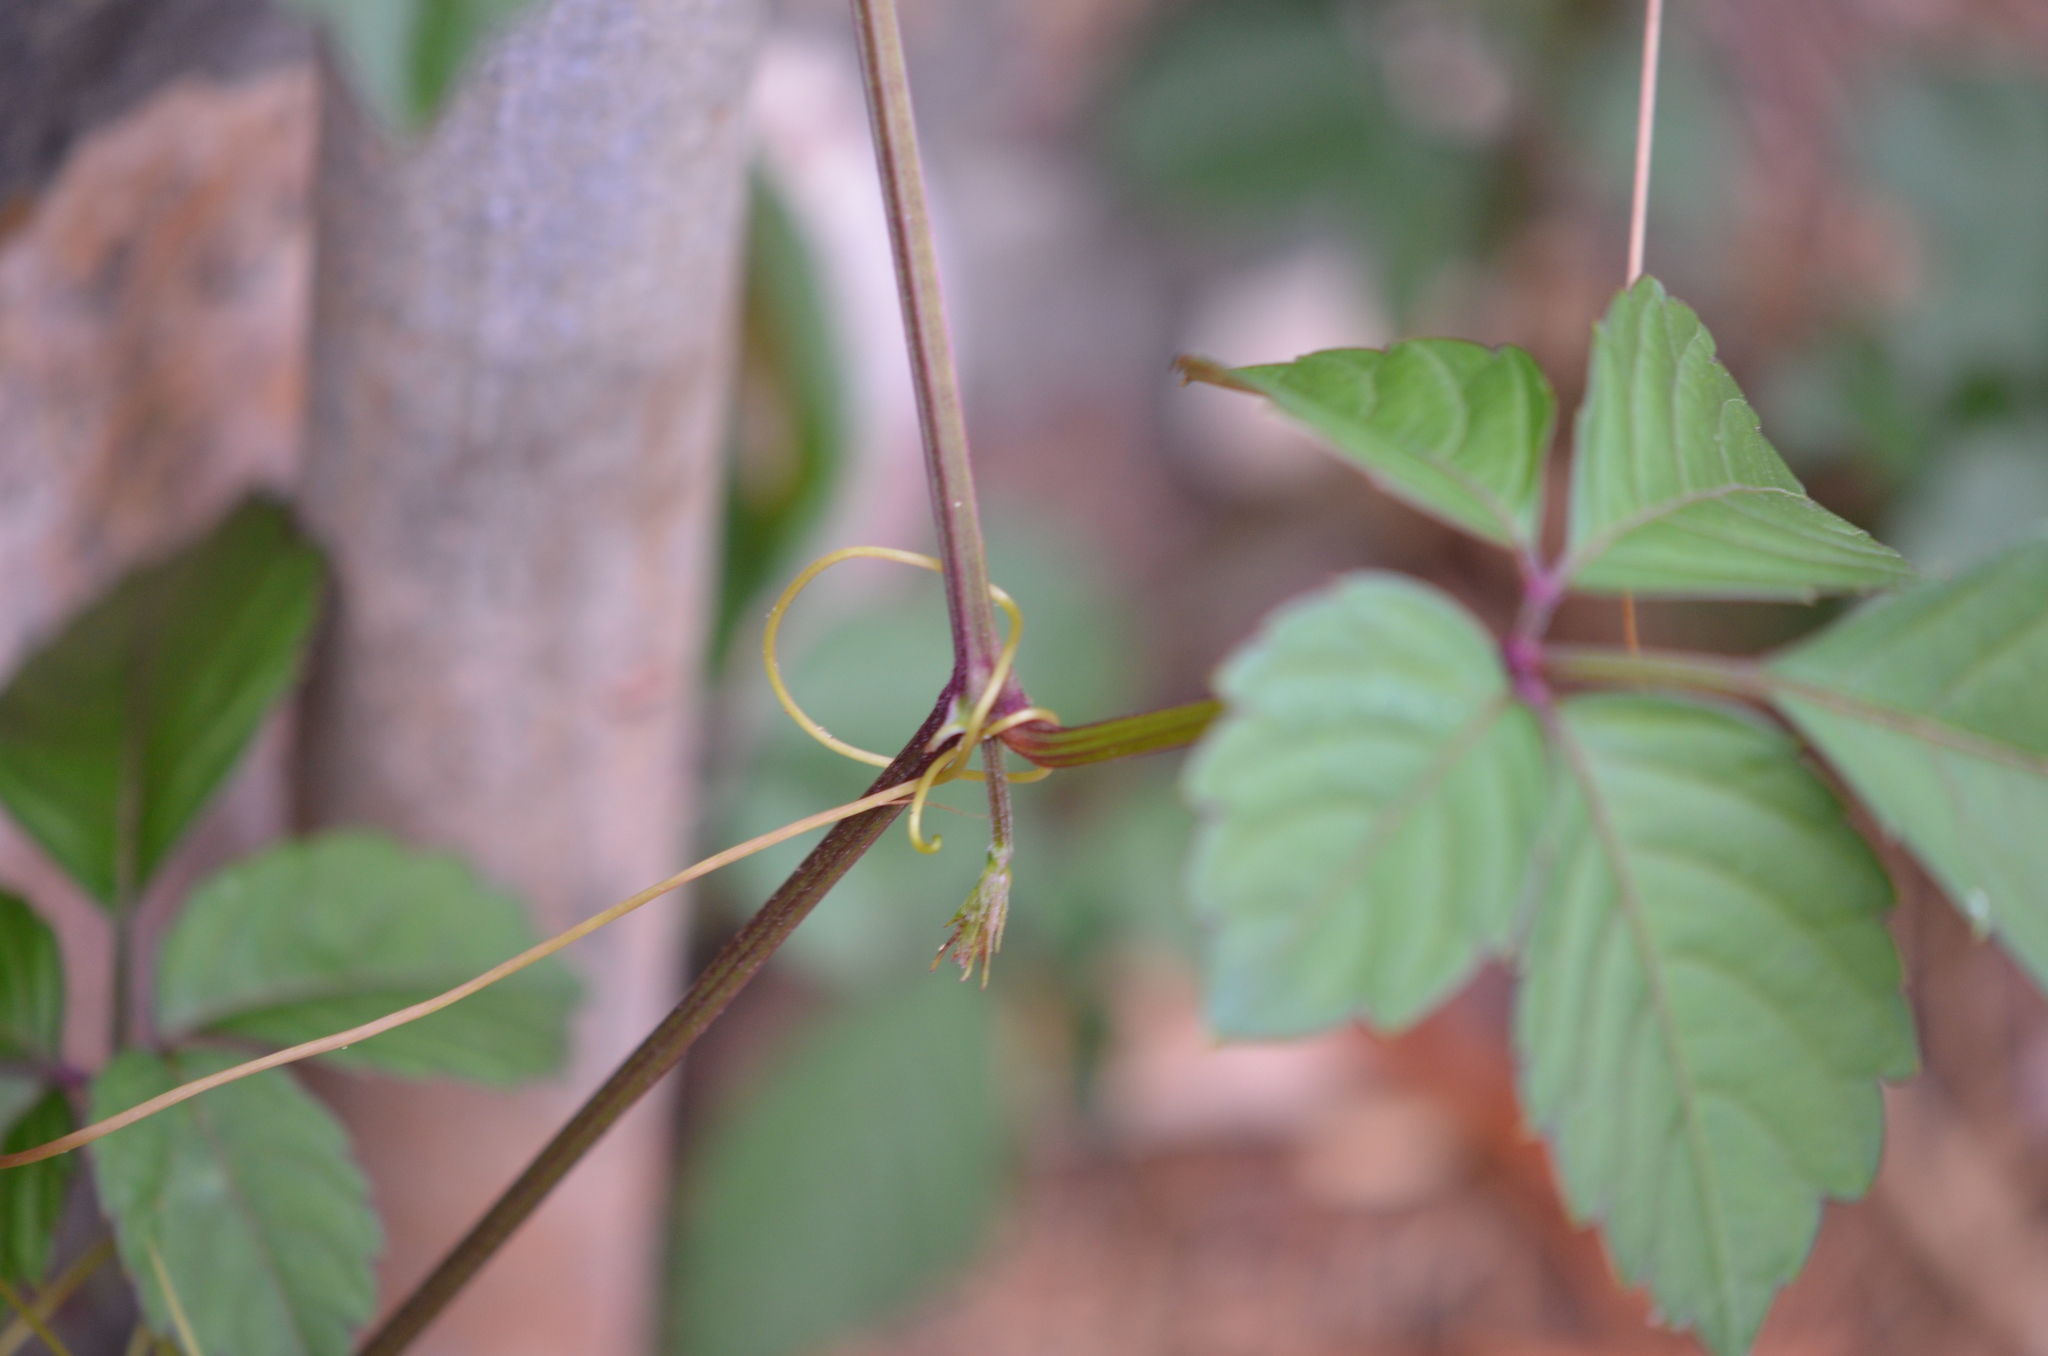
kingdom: Plantae
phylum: Tracheophyta
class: Magnoliopsida
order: Vitales
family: Vitaceae
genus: Causonis
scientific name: Causonis japonica
